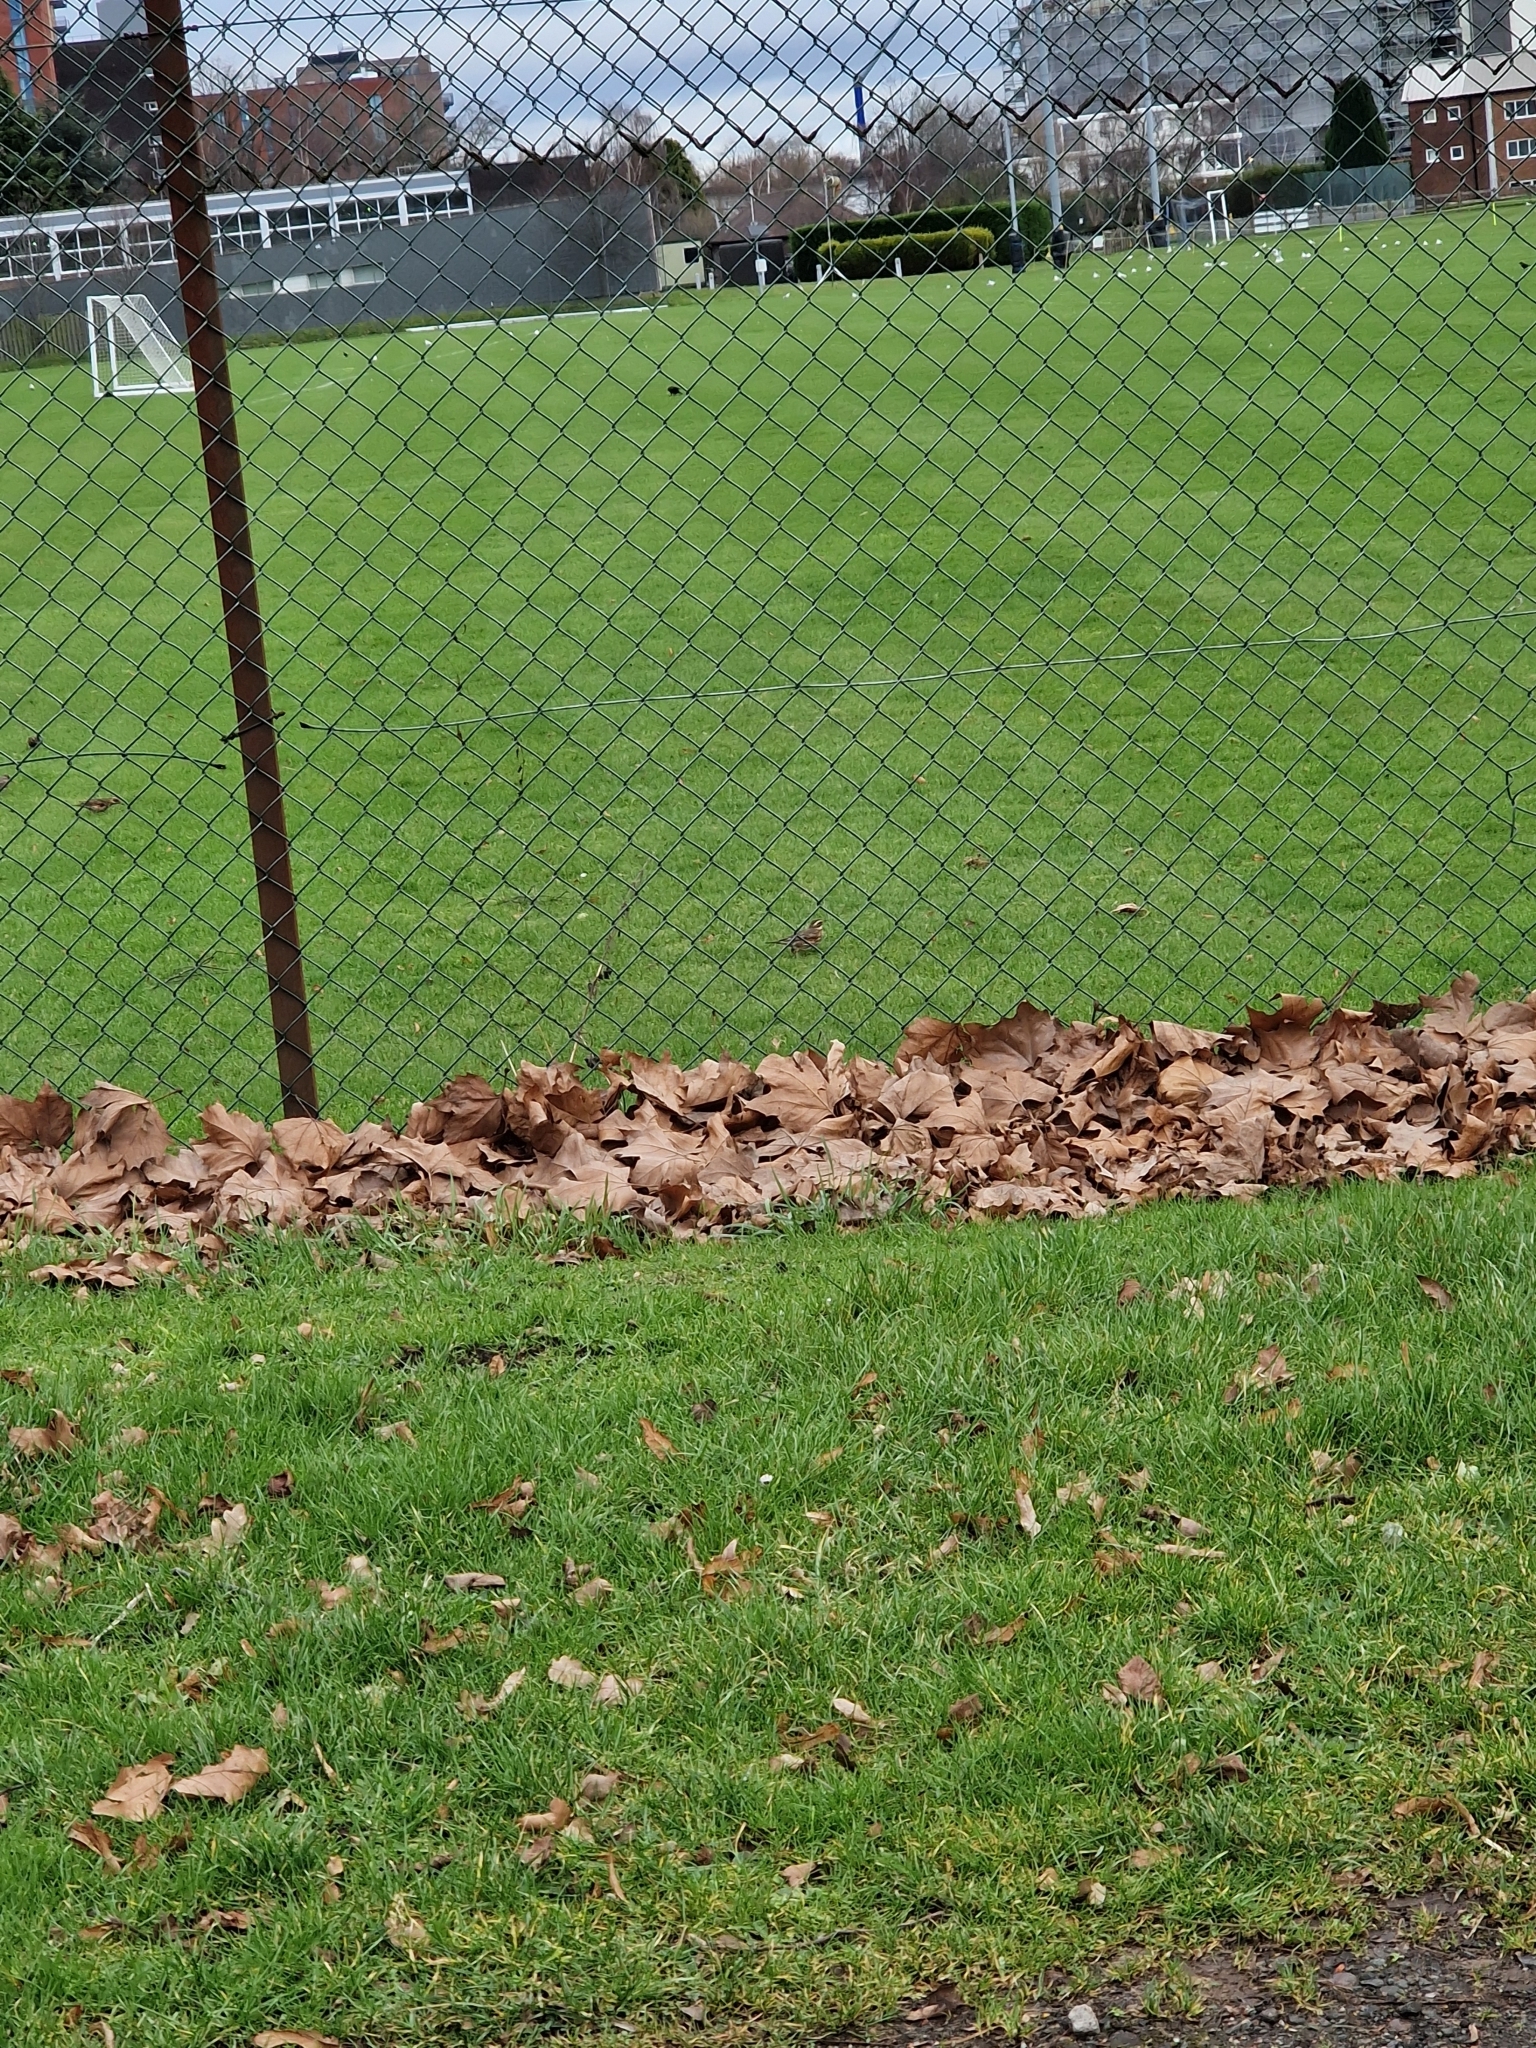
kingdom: Animalia
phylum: Chordata
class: Aves
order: Passeriformes
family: Turdidae
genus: Turdus
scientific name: Turdus iliacus
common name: Redwing
